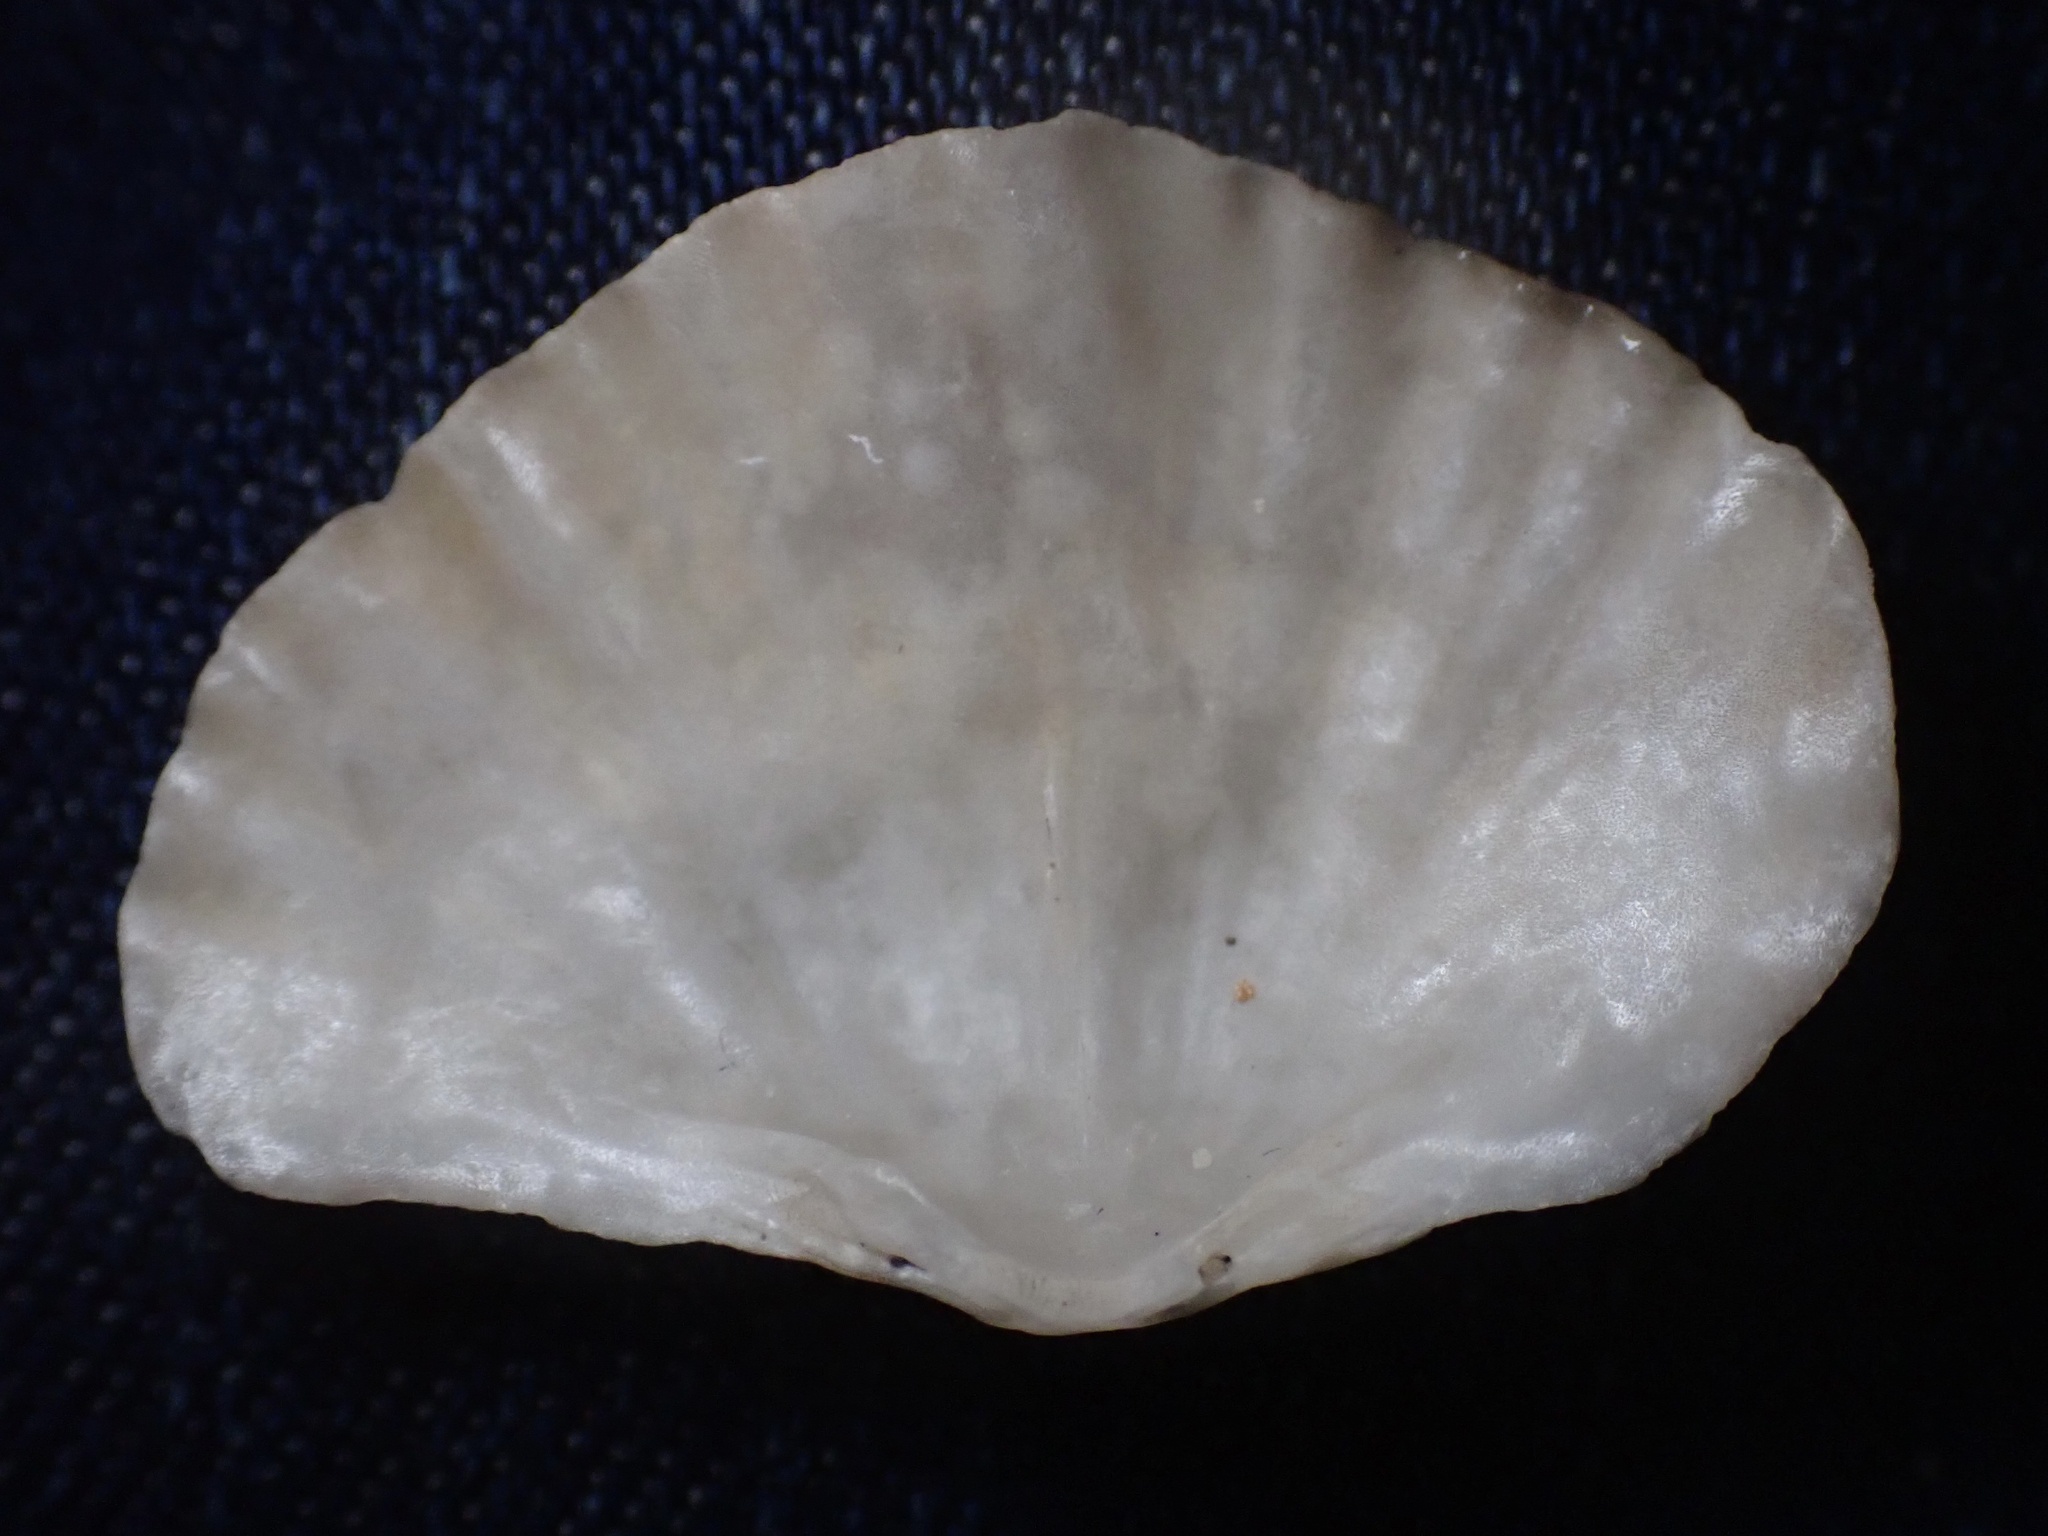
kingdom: Animalia
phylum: Brachiopoda
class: Rhynchonellata
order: Terebratulida
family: Terebrataliidae
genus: Terebratalia
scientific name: Terebratalia transversa
